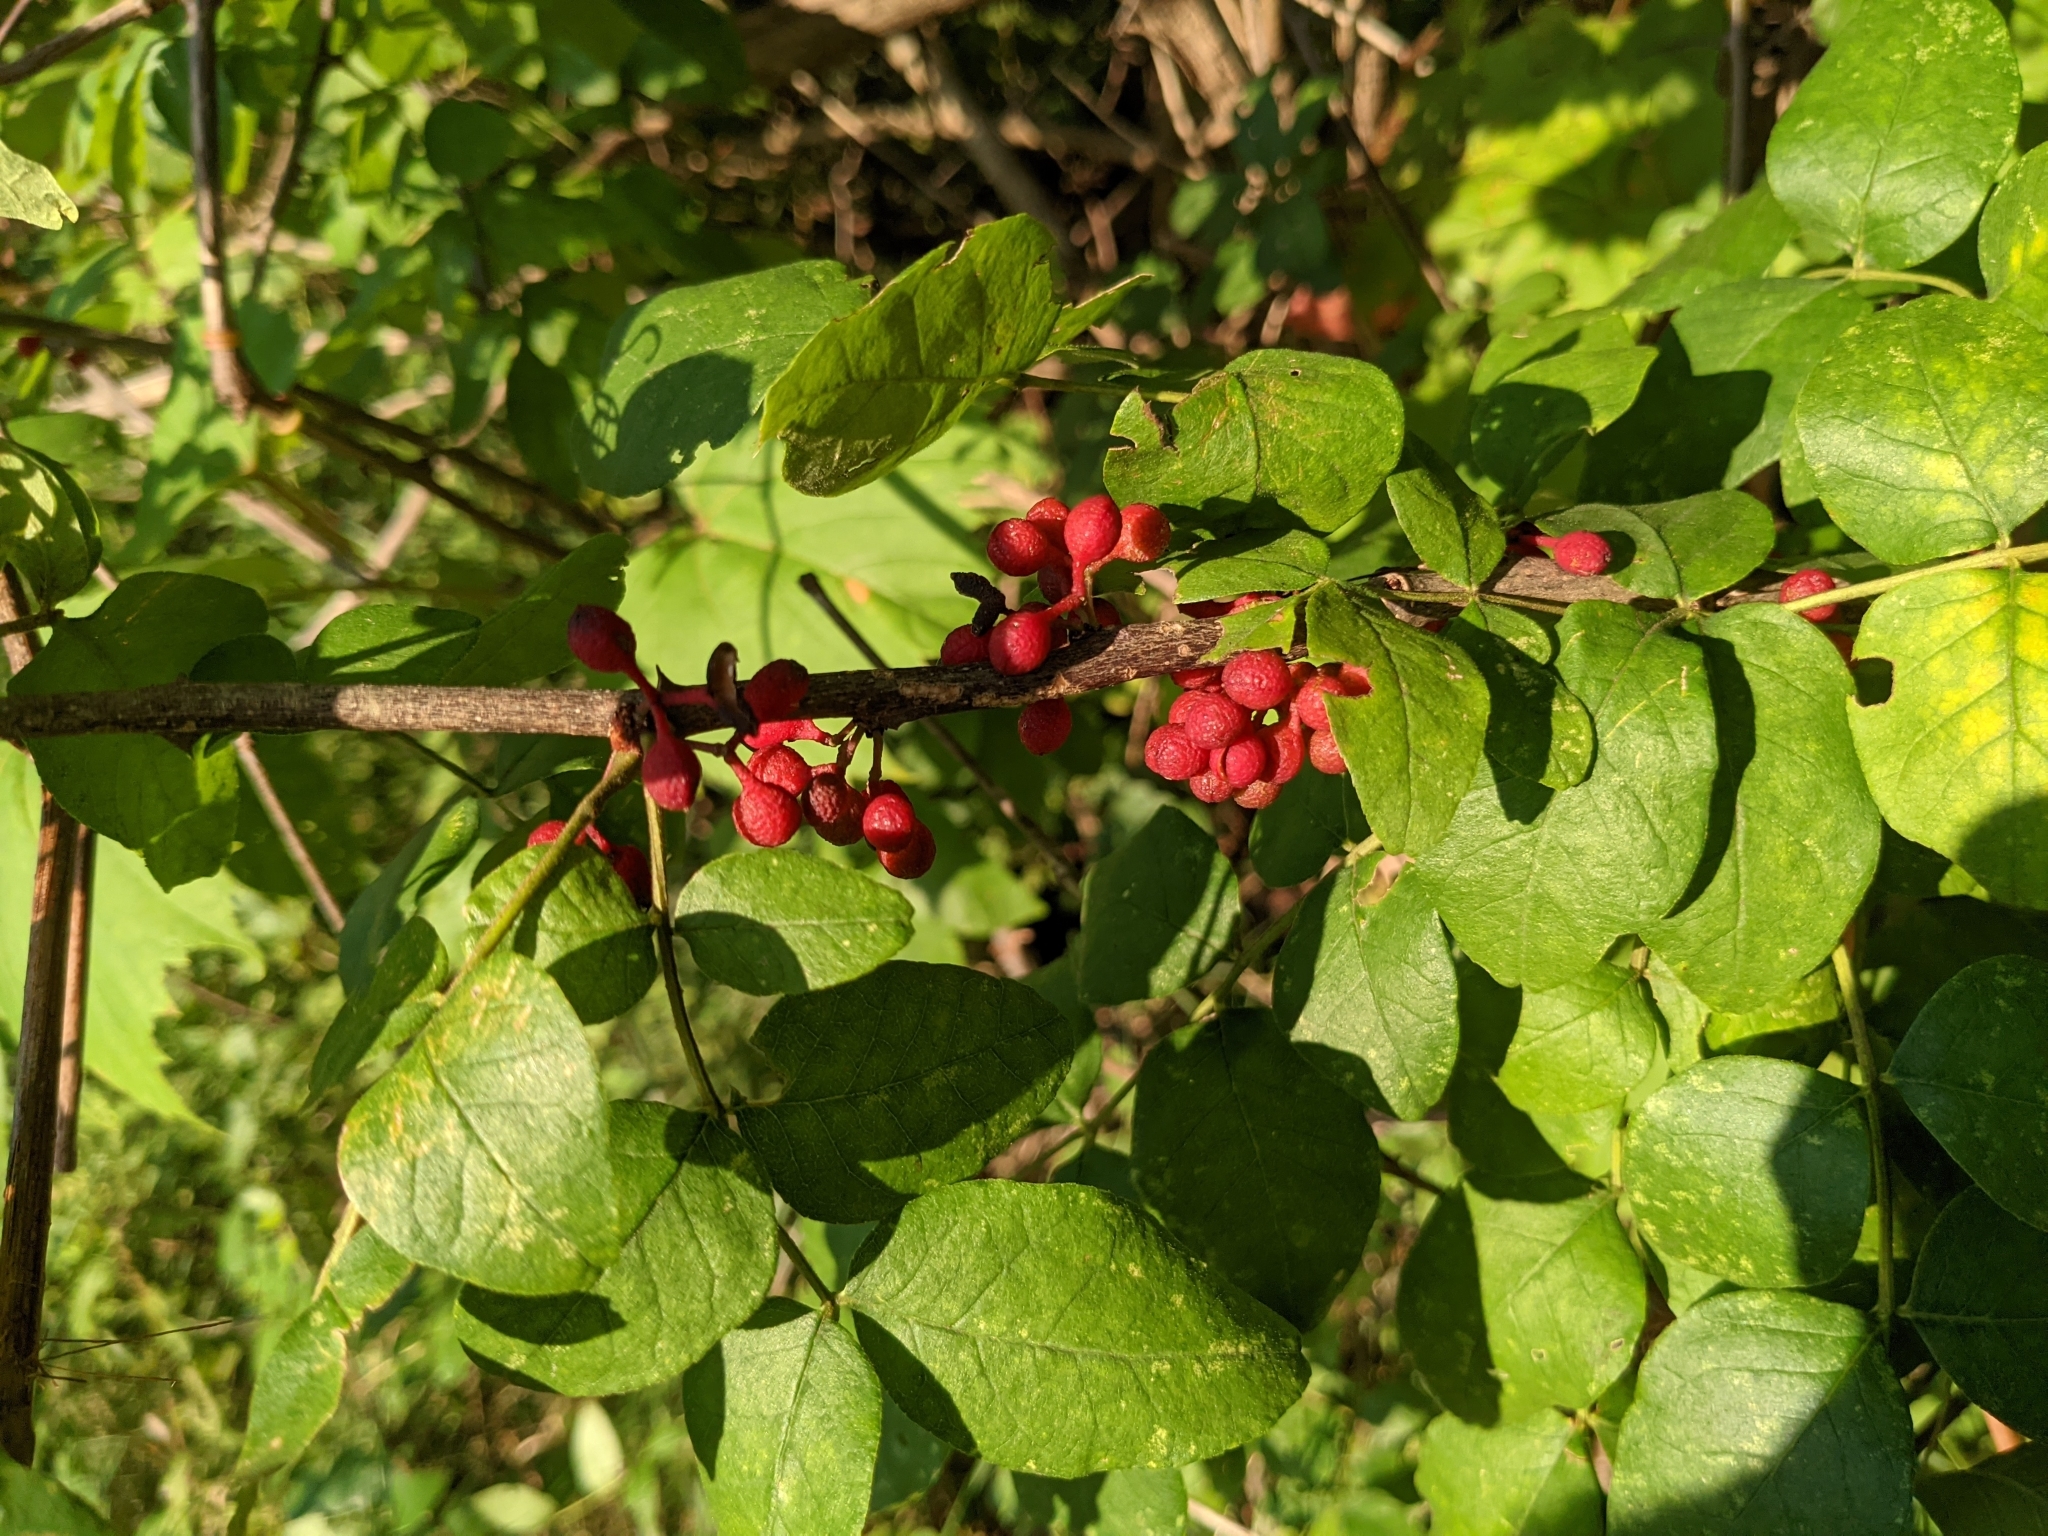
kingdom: Plantae
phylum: Tracheophyta
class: Magnoliopsida
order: Sapindales
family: Rutaceae
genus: Zanthoxylum
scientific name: Zanthoxylum americanum
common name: Northern prickly-ash
